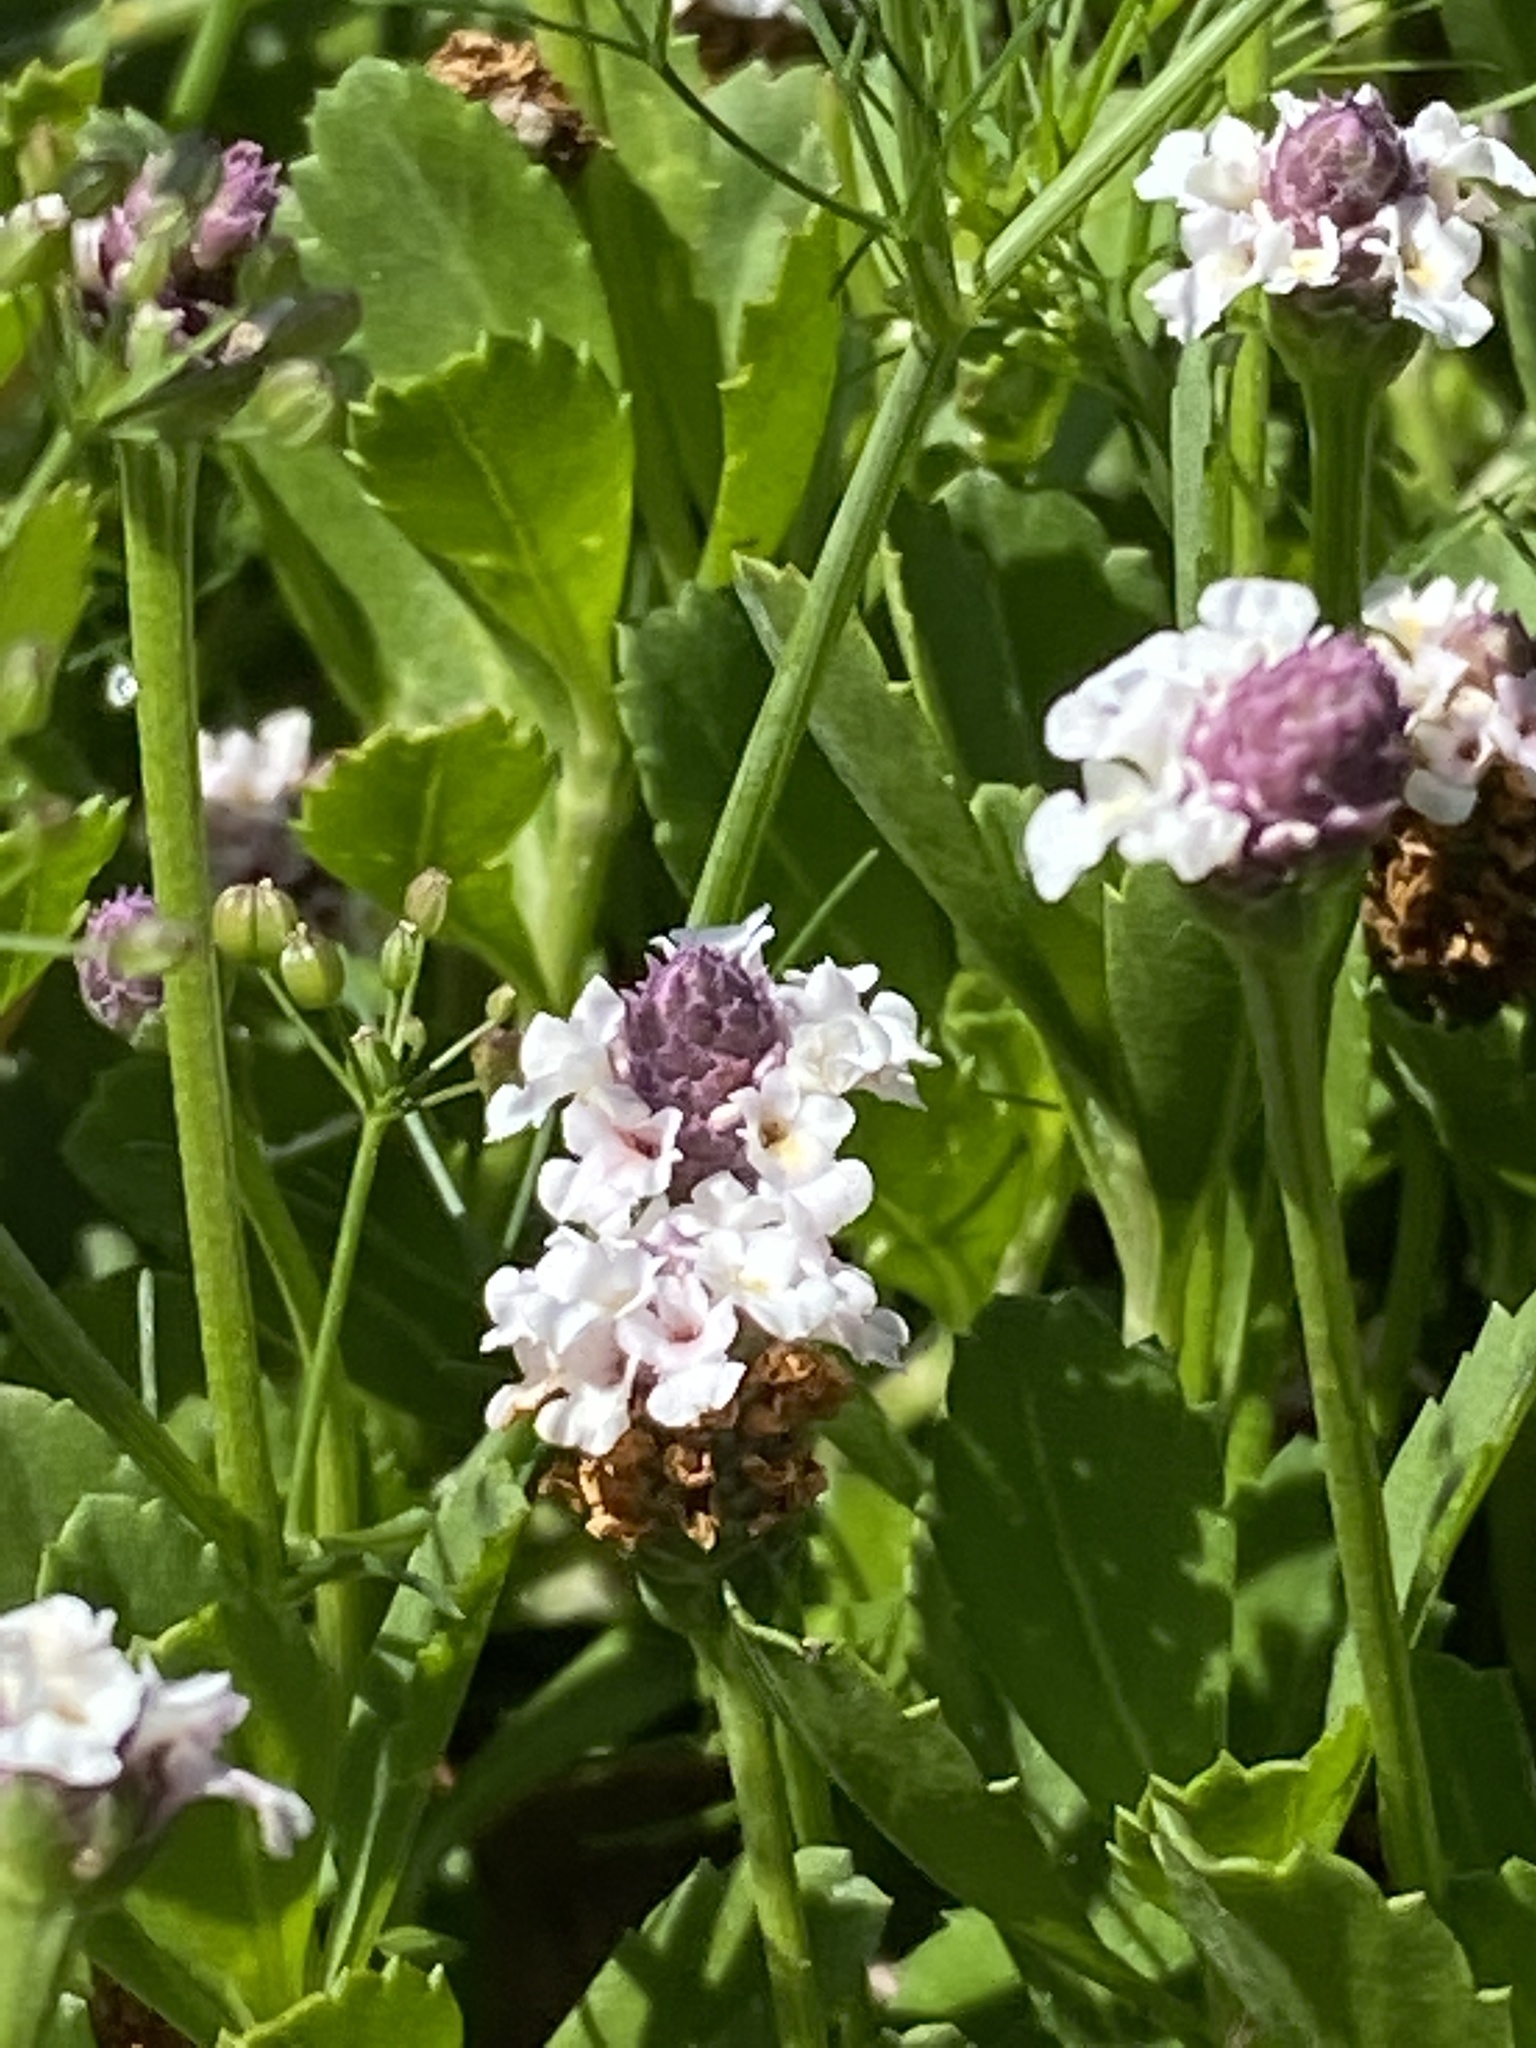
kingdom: Plantae
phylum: Tracheophyta
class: Magnoliopsida
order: Lamiales
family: Verbenaceae
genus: Phyla
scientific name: Phyla nodiflora
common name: Frogfruit
